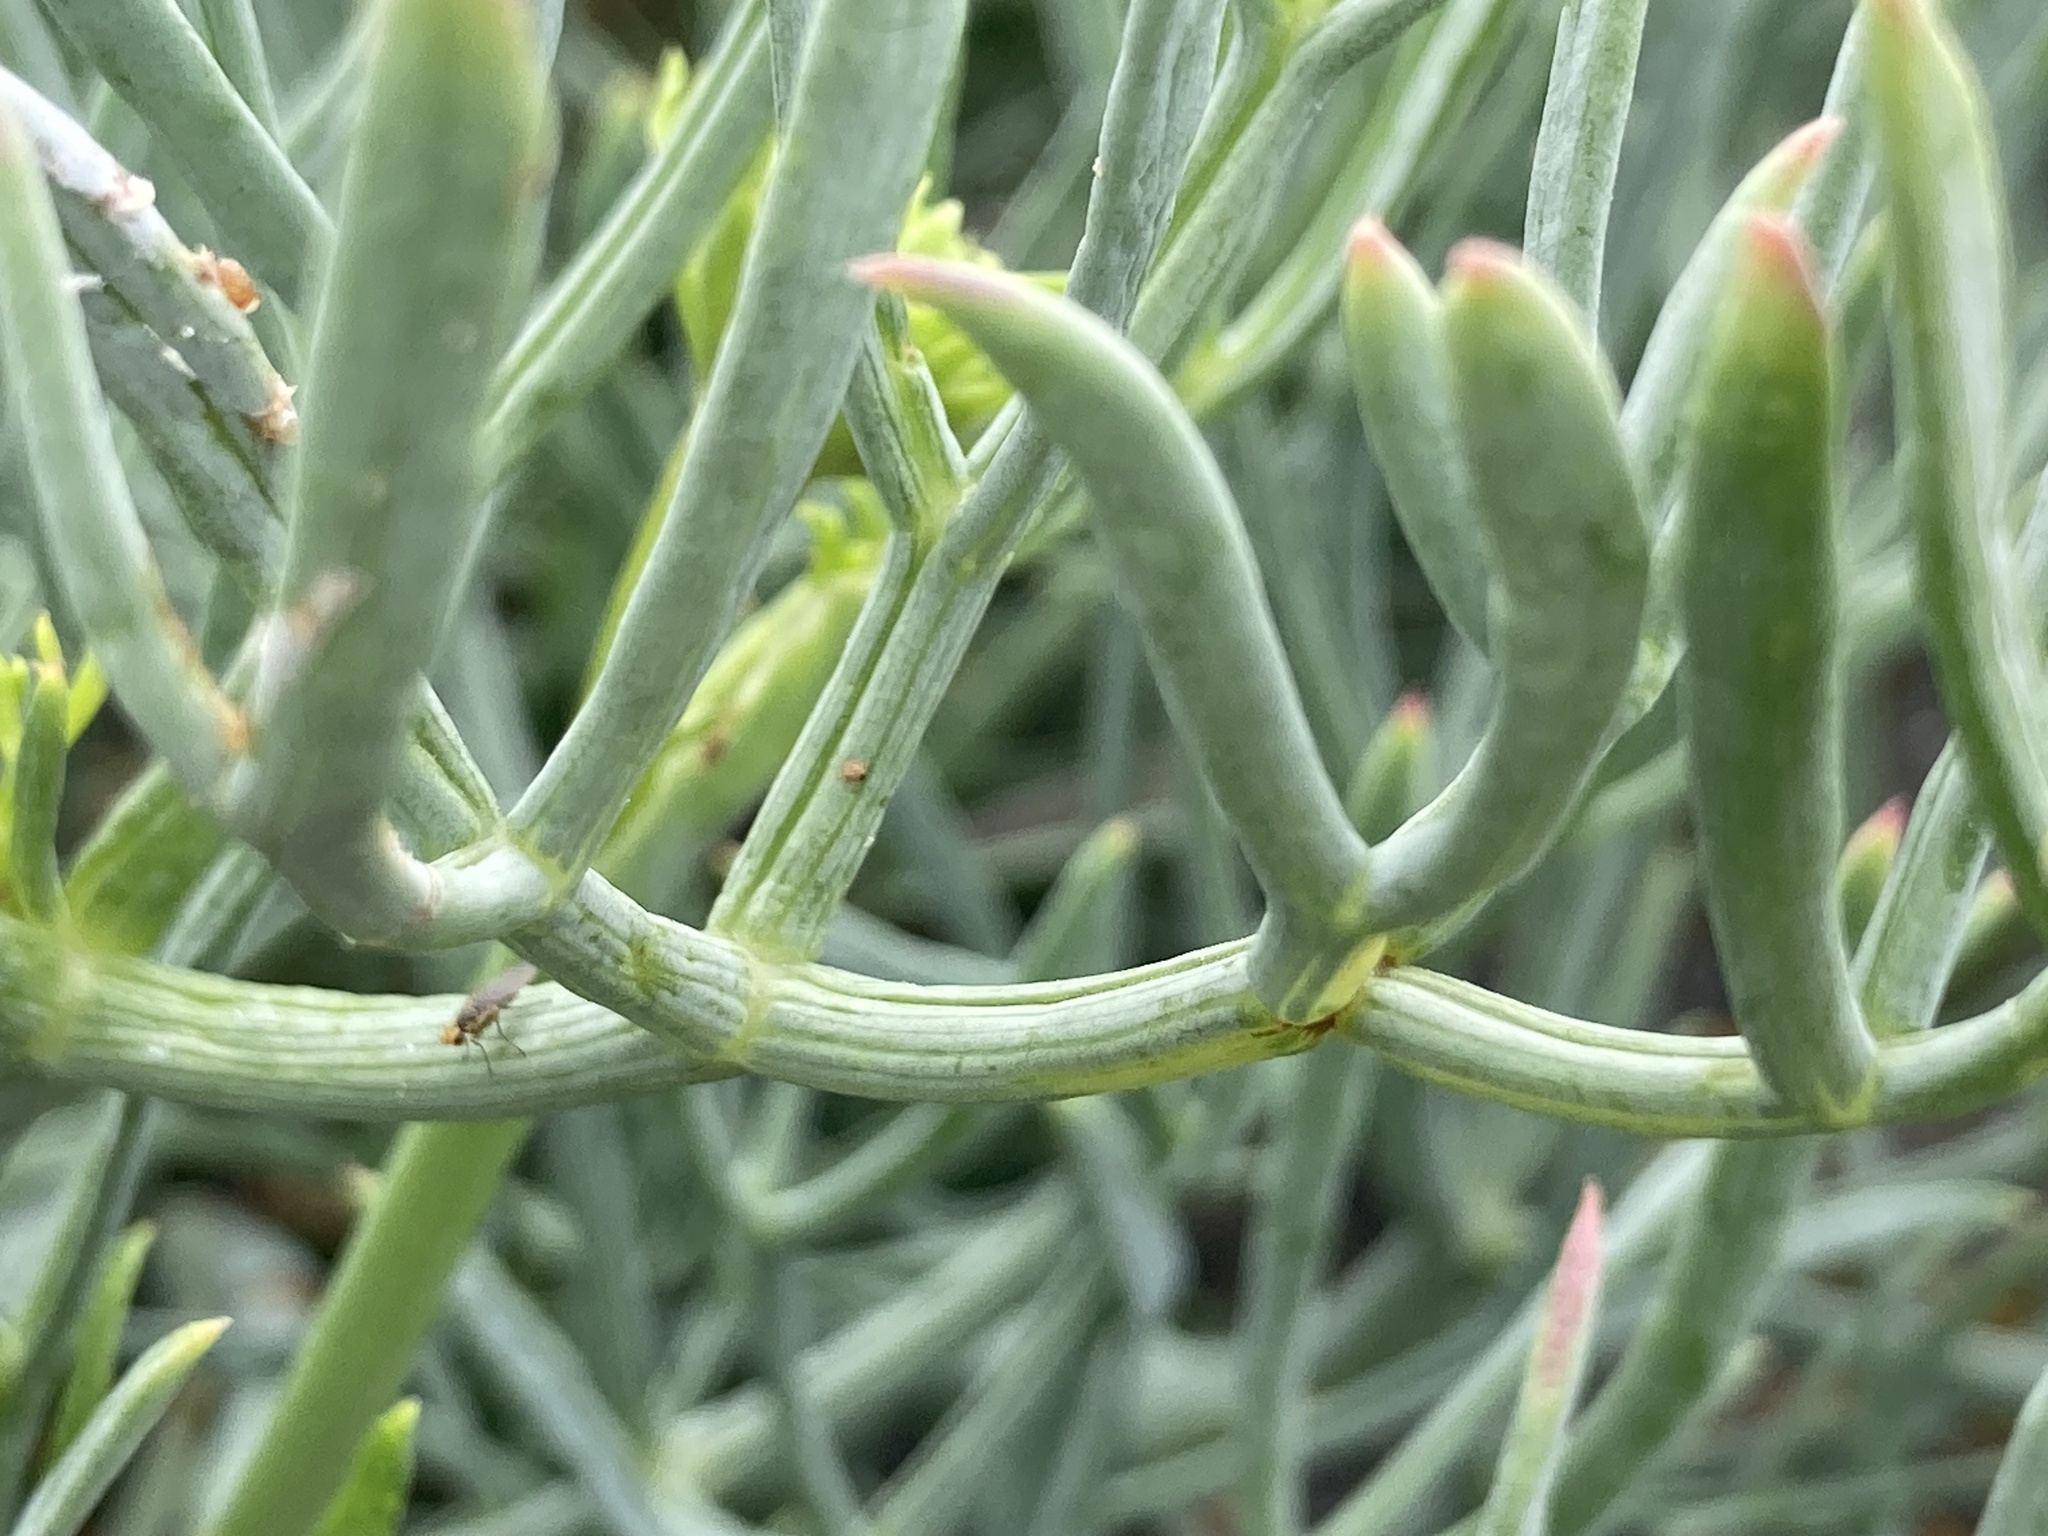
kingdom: Plantae
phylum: Tracheophyta
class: Magnoliopsida
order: Apiales
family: Apiaceae
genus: Crithmum
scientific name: Crithmum maritimum
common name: Rock samphire
